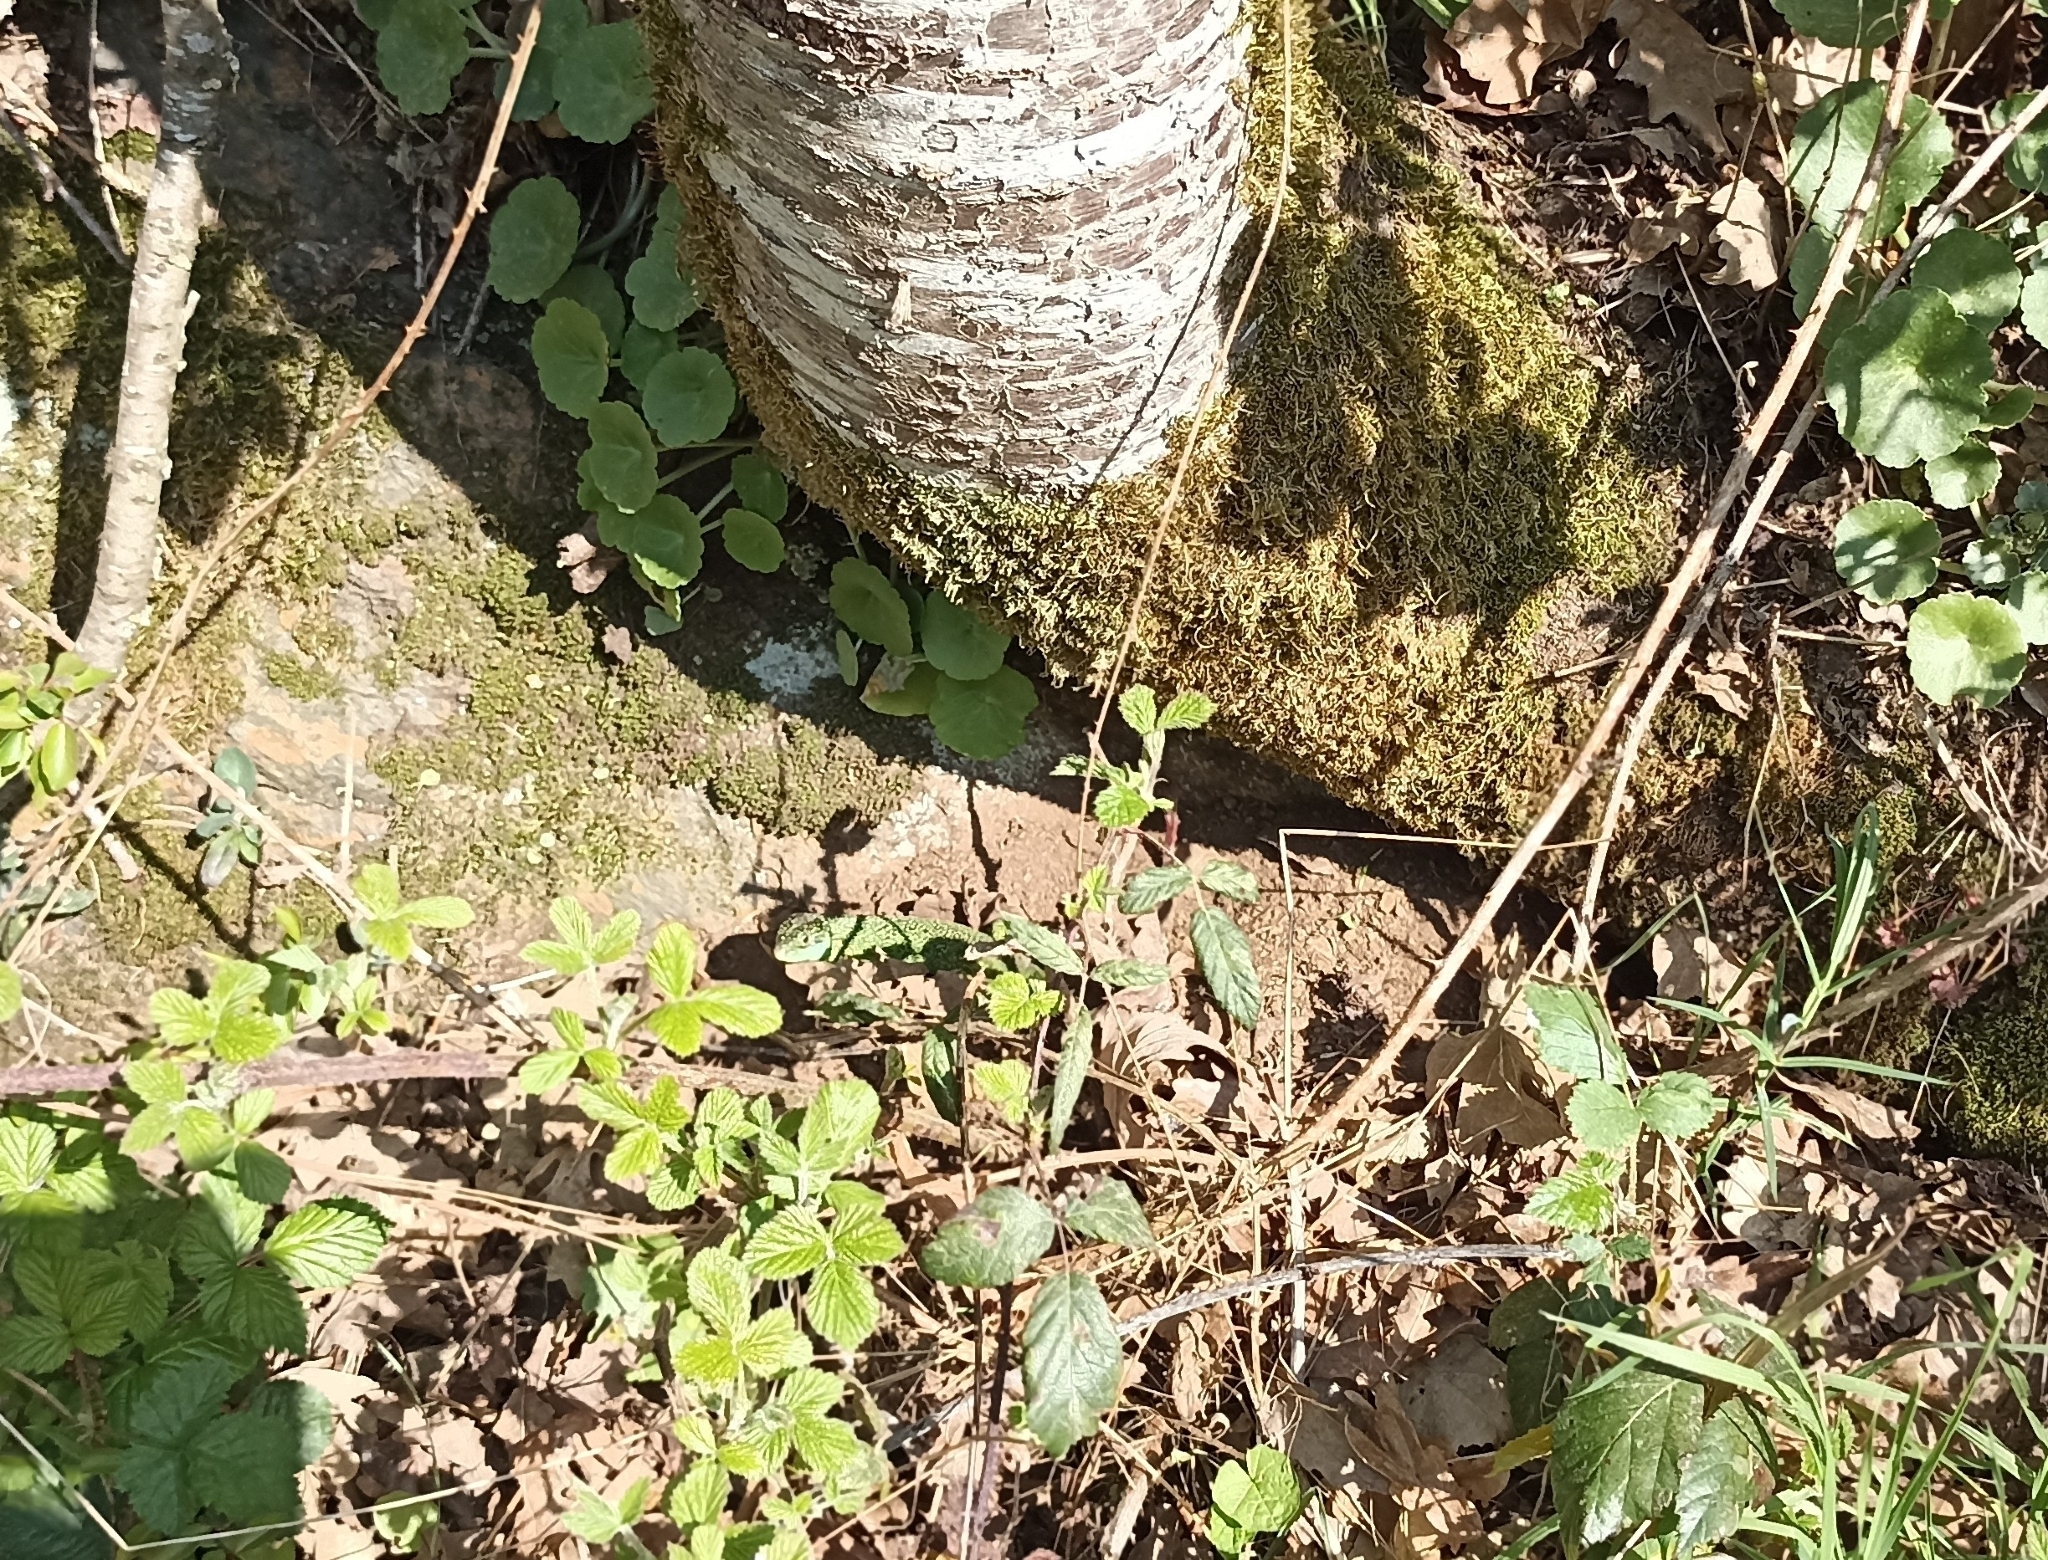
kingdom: Animalia
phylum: Chordata
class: Squamata
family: Lacertidae
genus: Lacerta
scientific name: Lacerta bilineata
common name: Western green lizard
